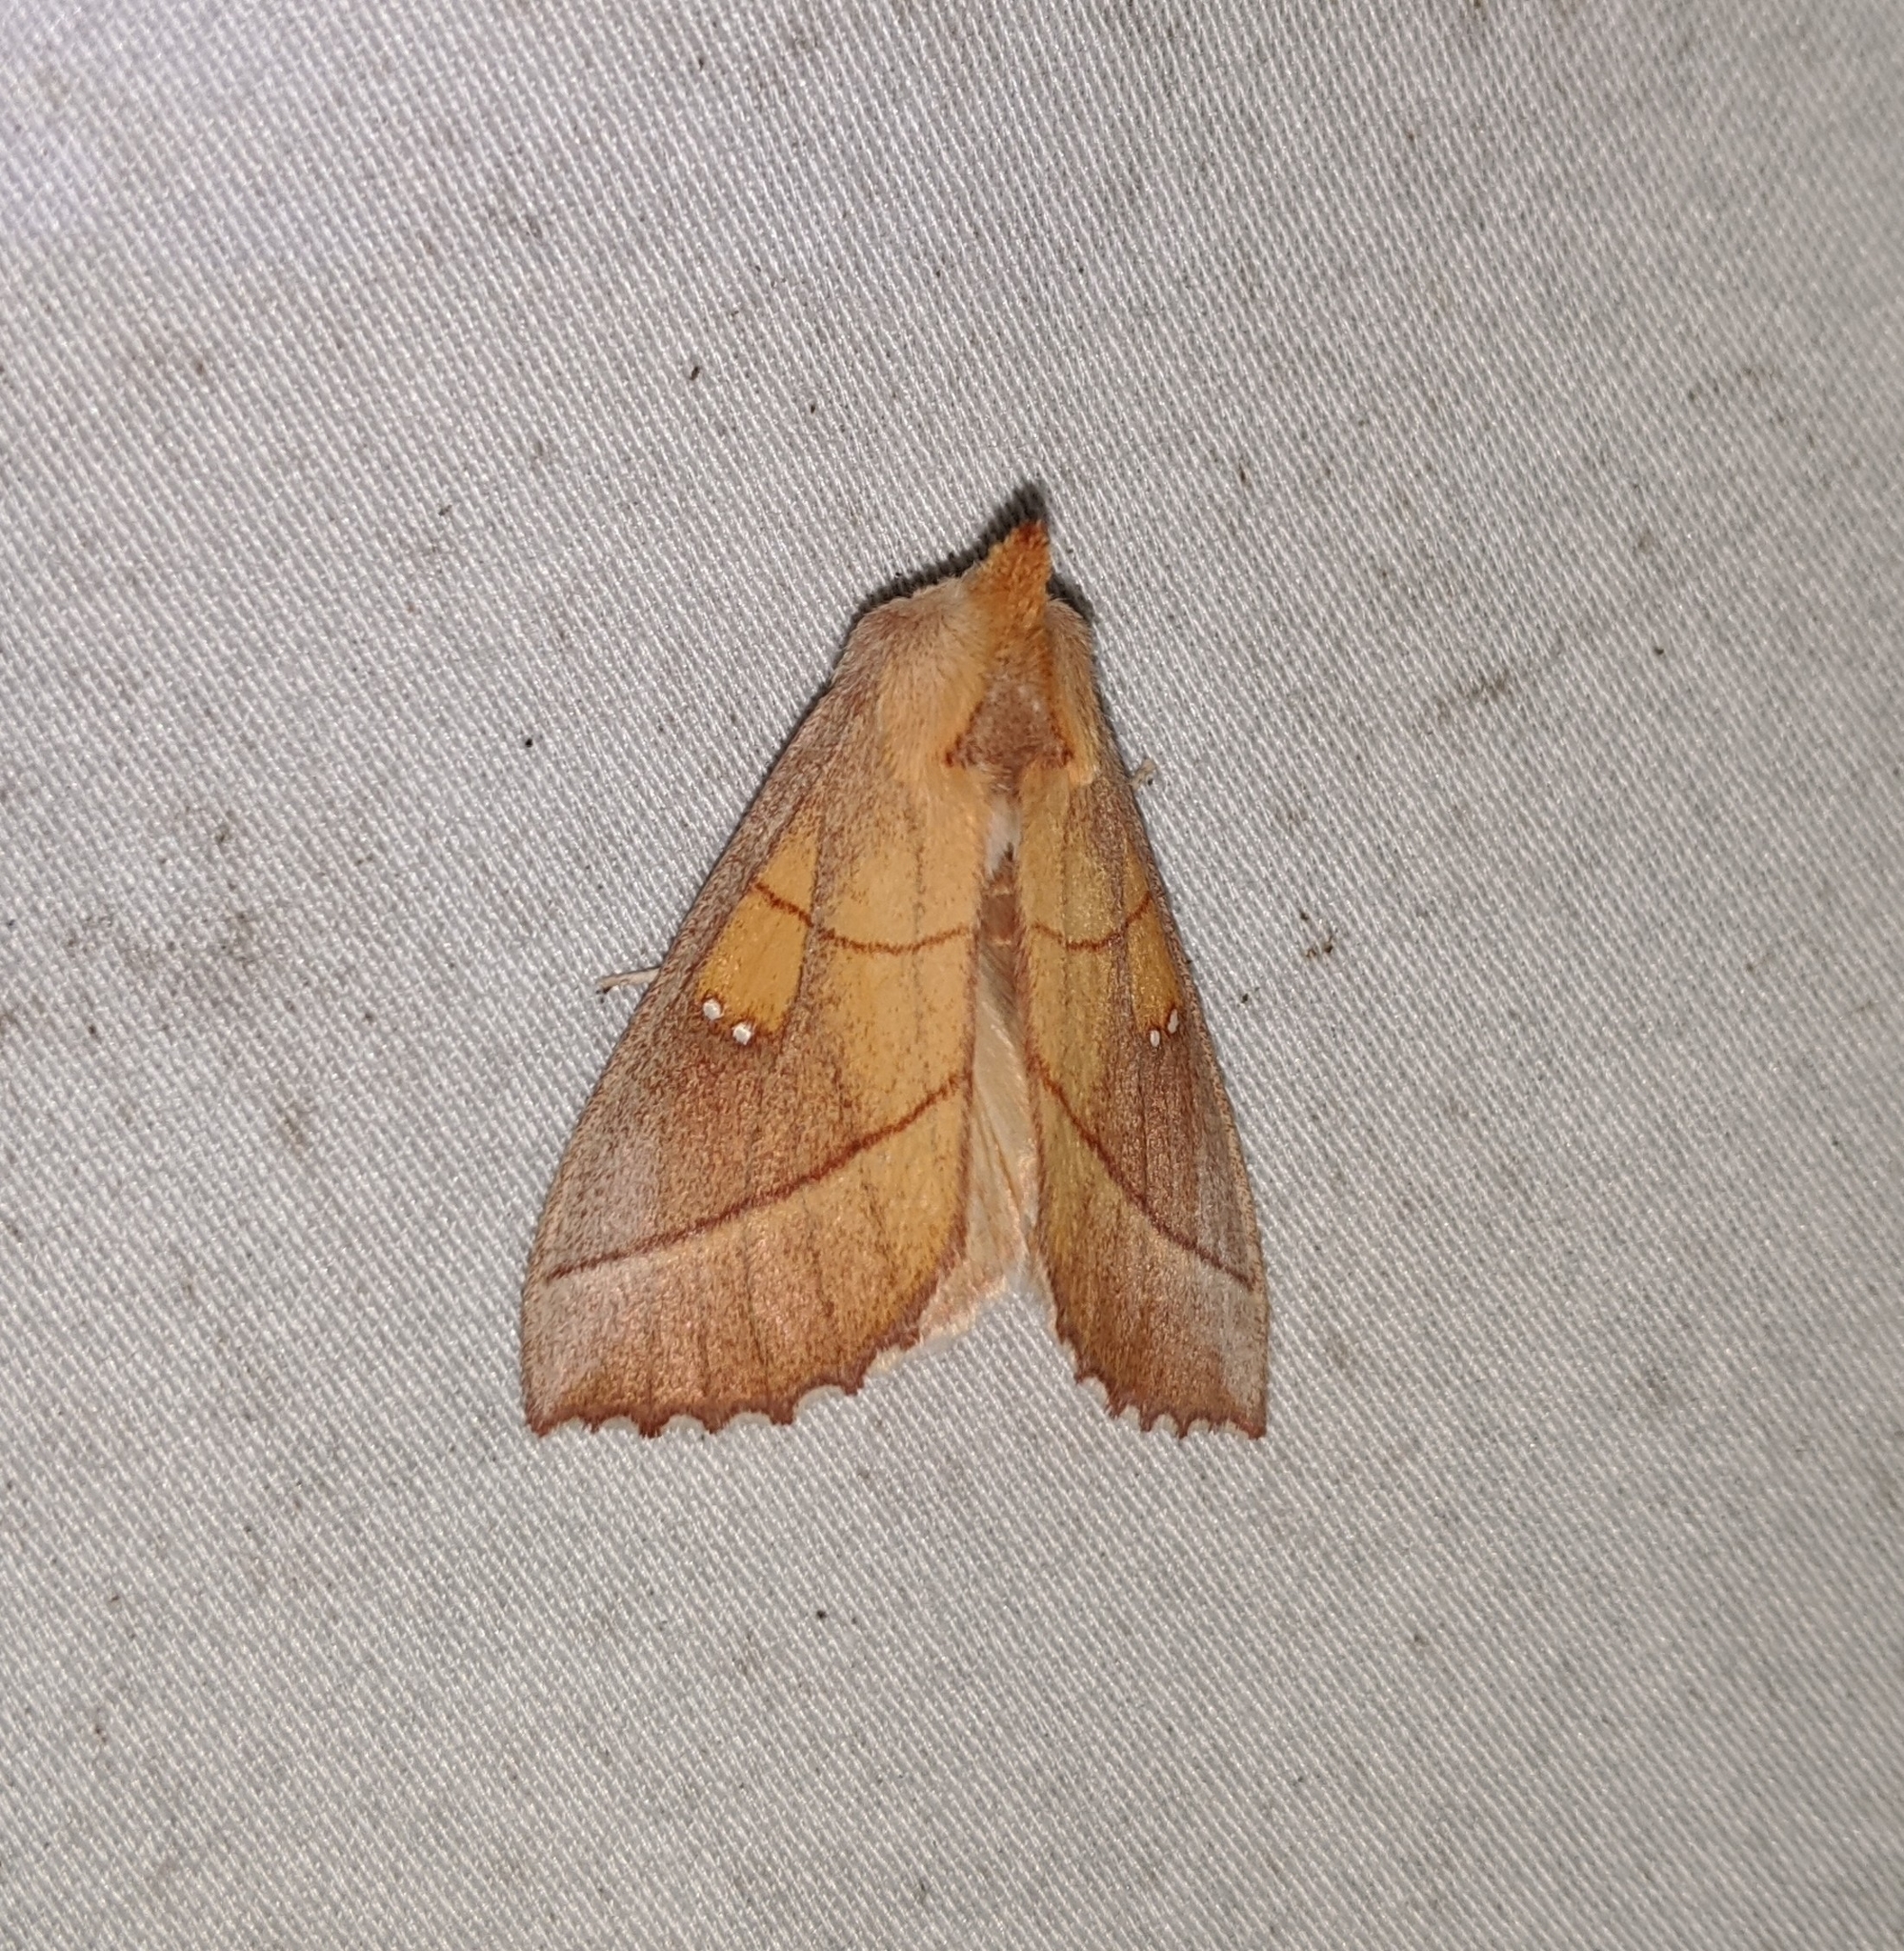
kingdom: Animalia
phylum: Arthropoda
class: Insecta
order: Lepidoptera
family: Notodontidae
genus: Nadata
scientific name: Nadata gibbosa
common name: White-dotted prominent
